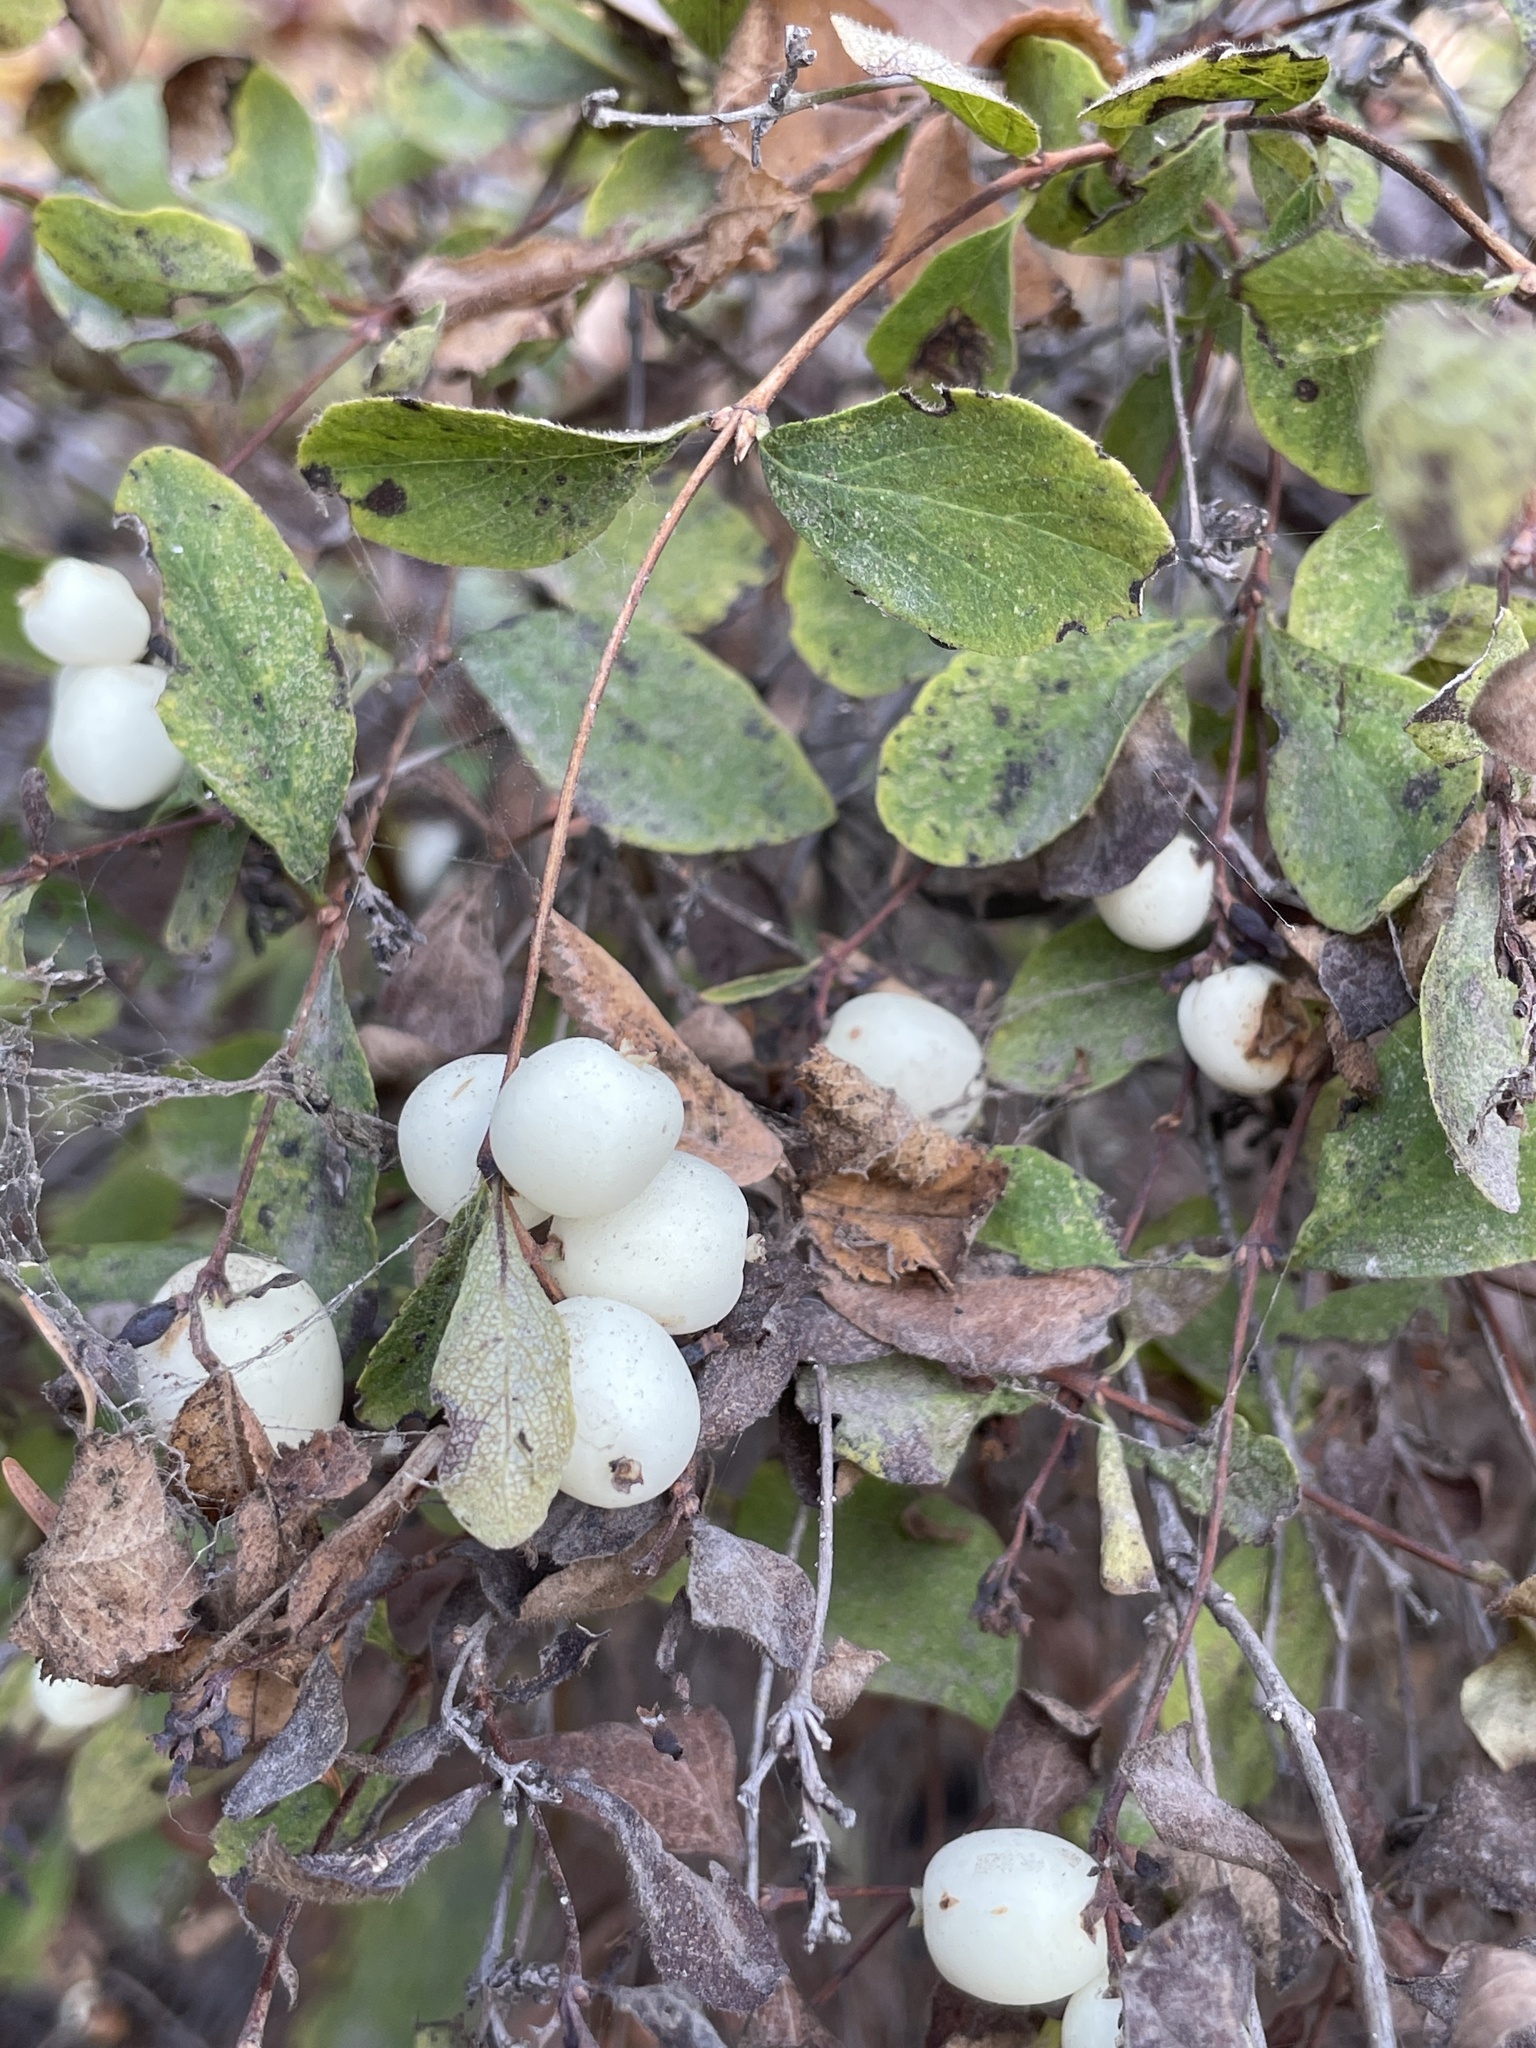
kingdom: Plantae
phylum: Tracheophyta
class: Magnoliopsida
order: Dipsacales
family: Caprifoliaceae
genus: Symphoricarpos
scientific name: Symphoricarpos albus
